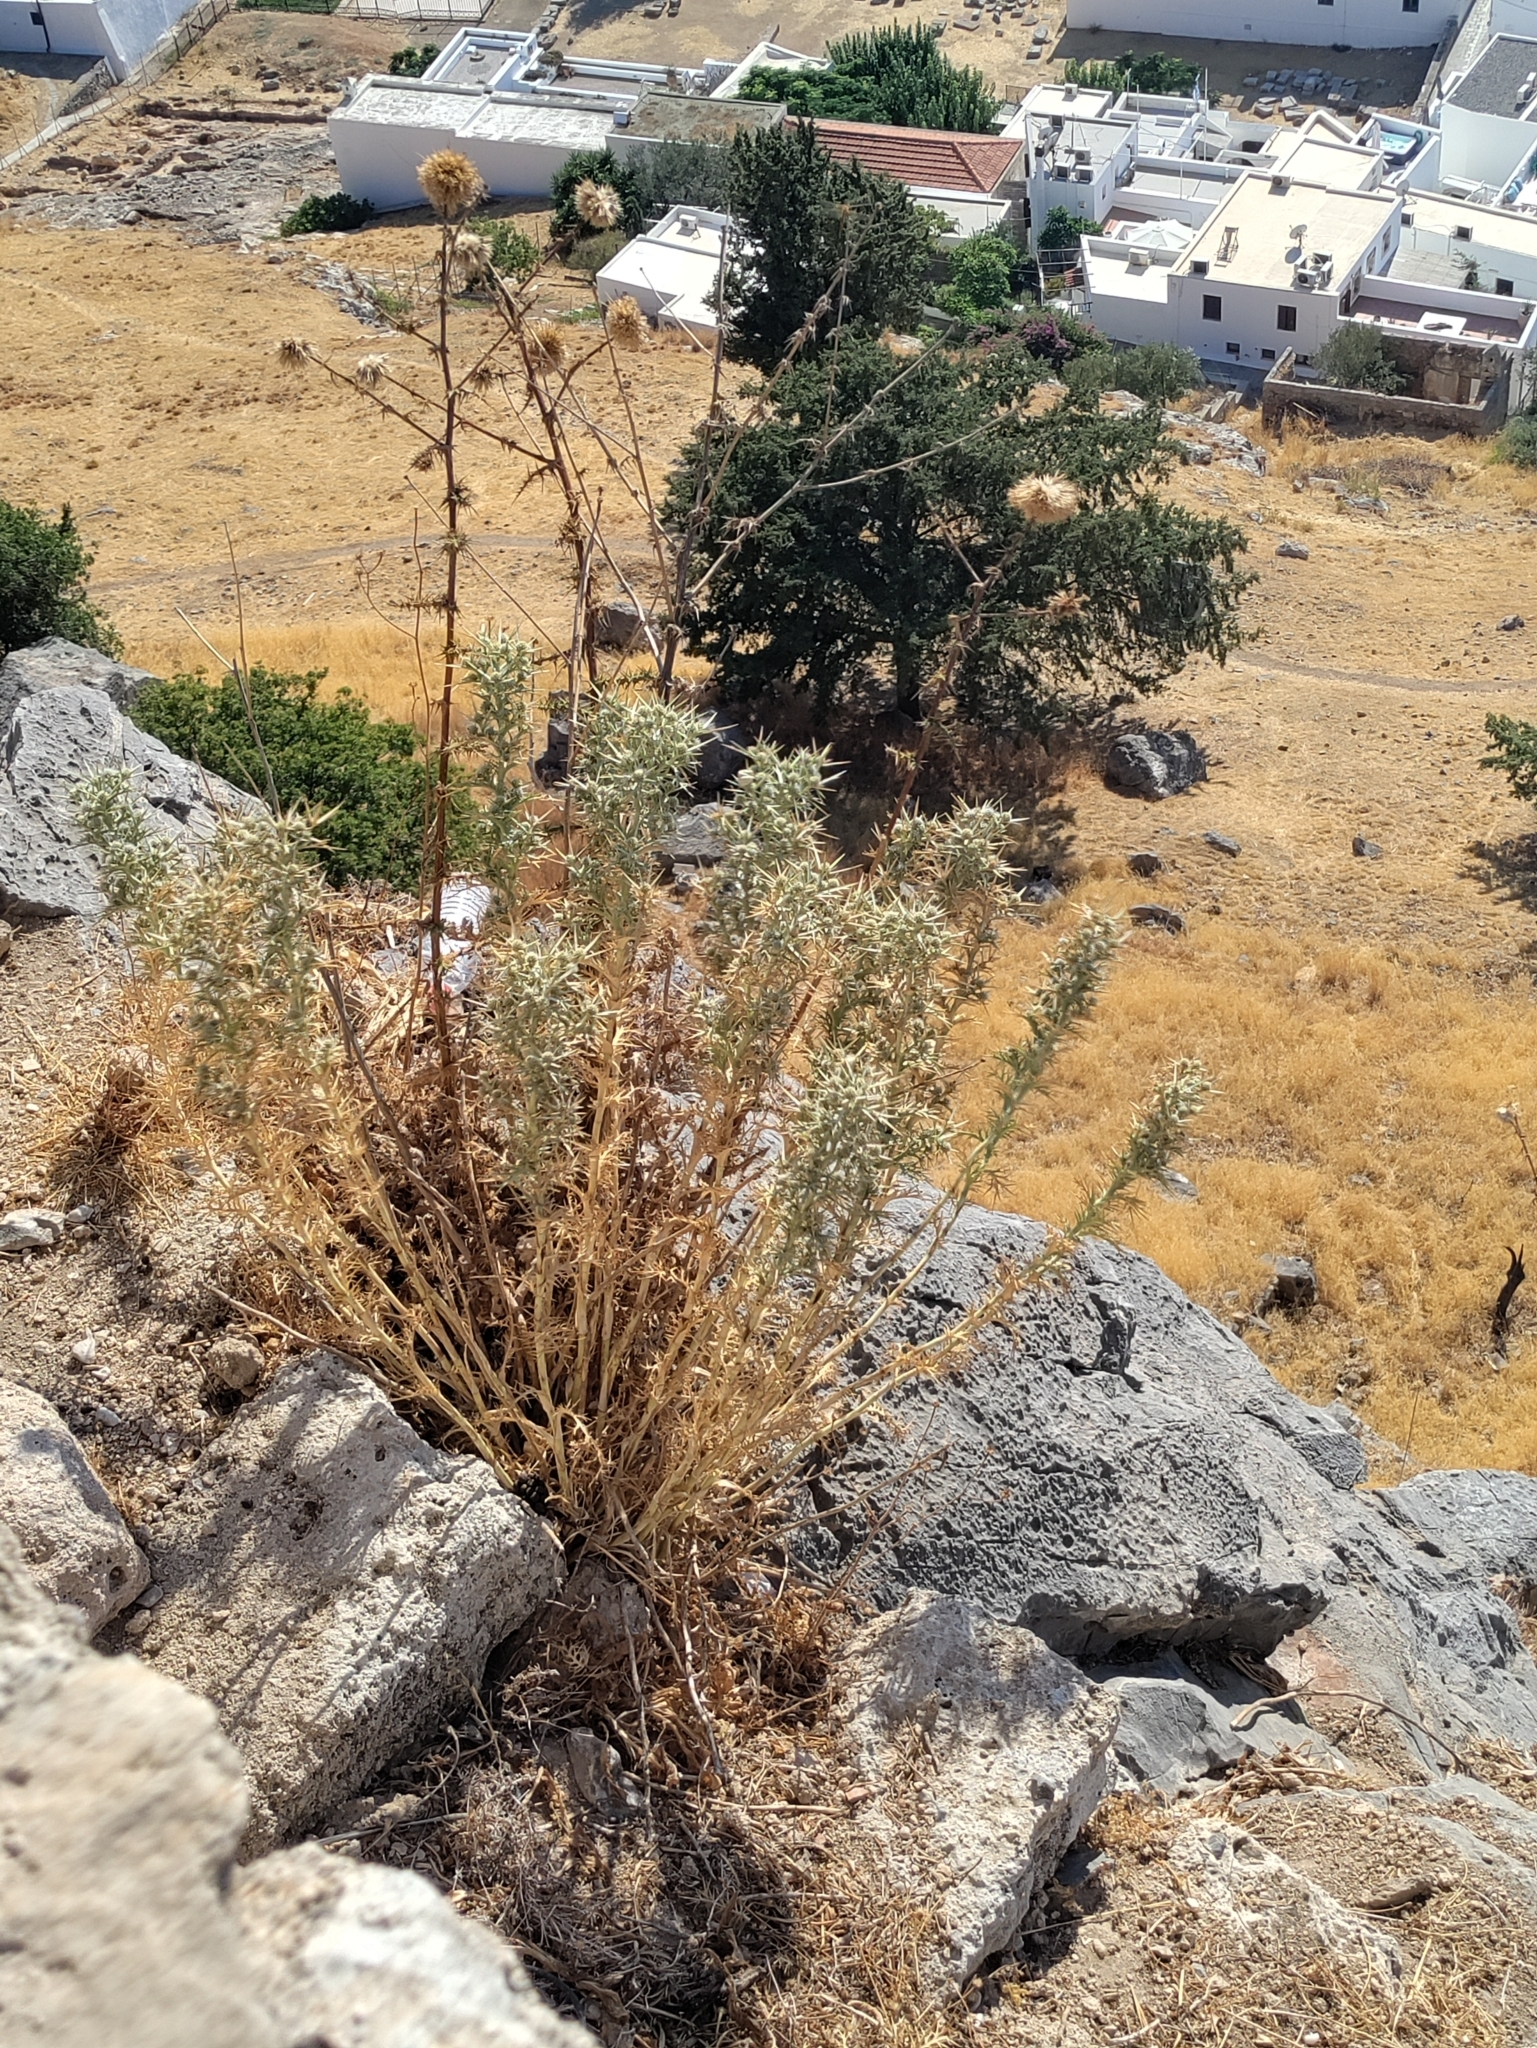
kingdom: Plantae
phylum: Tracheophyta
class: Magnoliopsida
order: Apiales
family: Apiaceae
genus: Eryngium
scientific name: Eryngium glomeratum
